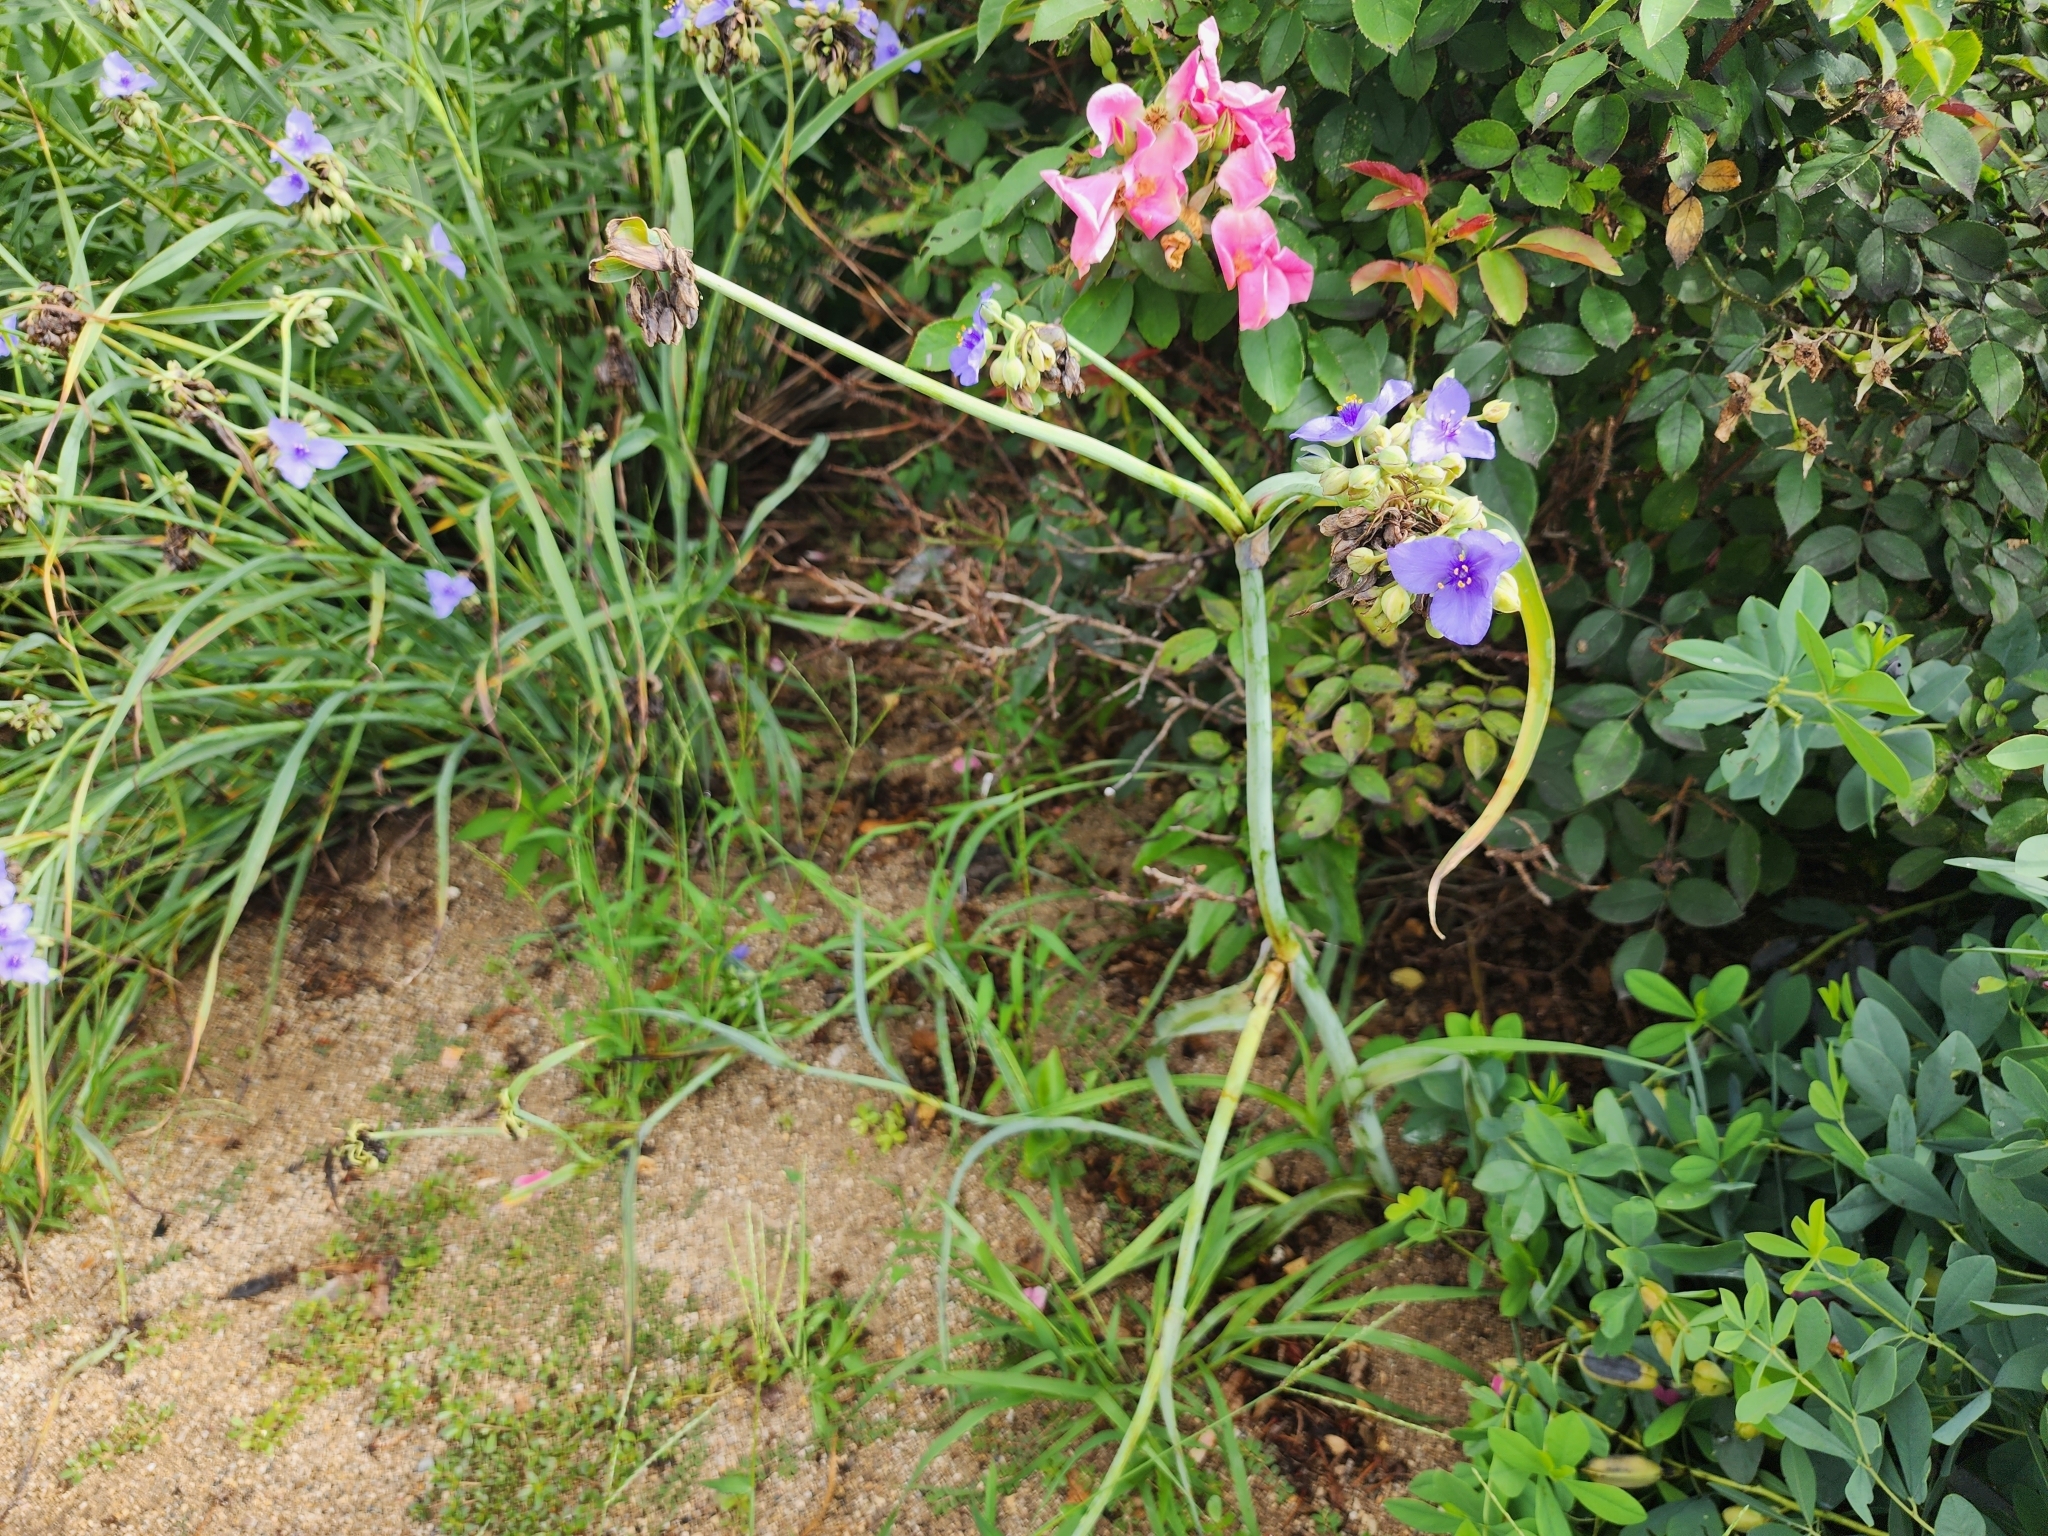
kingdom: Plantae
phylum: Tracheophyta
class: Liliopsida
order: Commelinales
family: Commelinaceae
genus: Tradescantia
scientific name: Tradescantia ohiensis
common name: Ohio spiderwort
